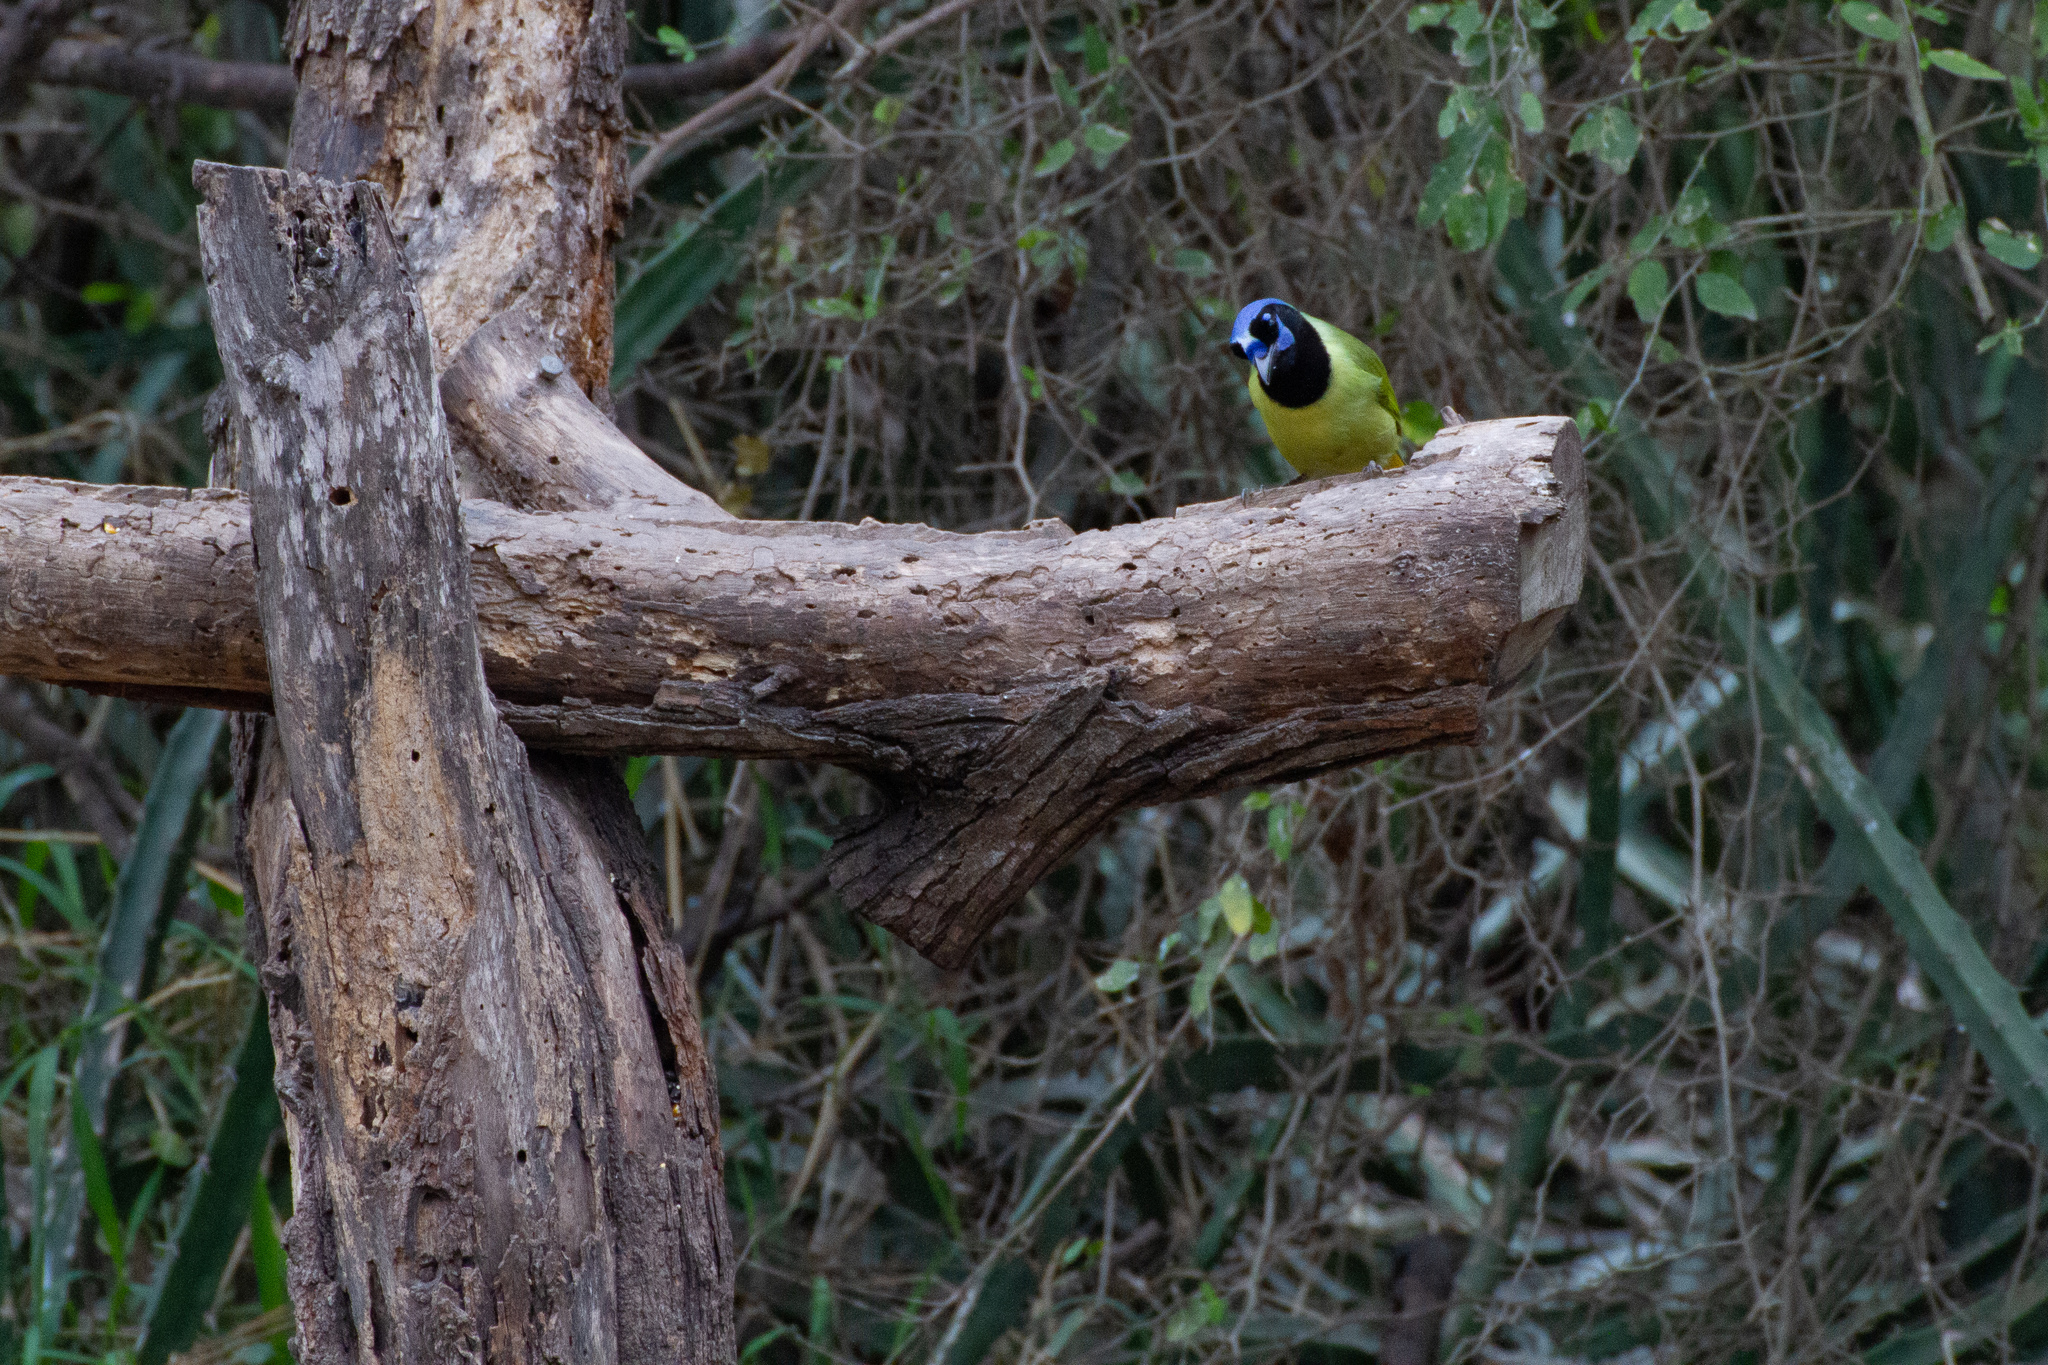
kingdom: Animalia
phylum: Chordata
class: Aves
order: Passeriformes
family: Corvidae
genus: Cyanocorax
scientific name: Cyanocorax yncas
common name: Green jay
